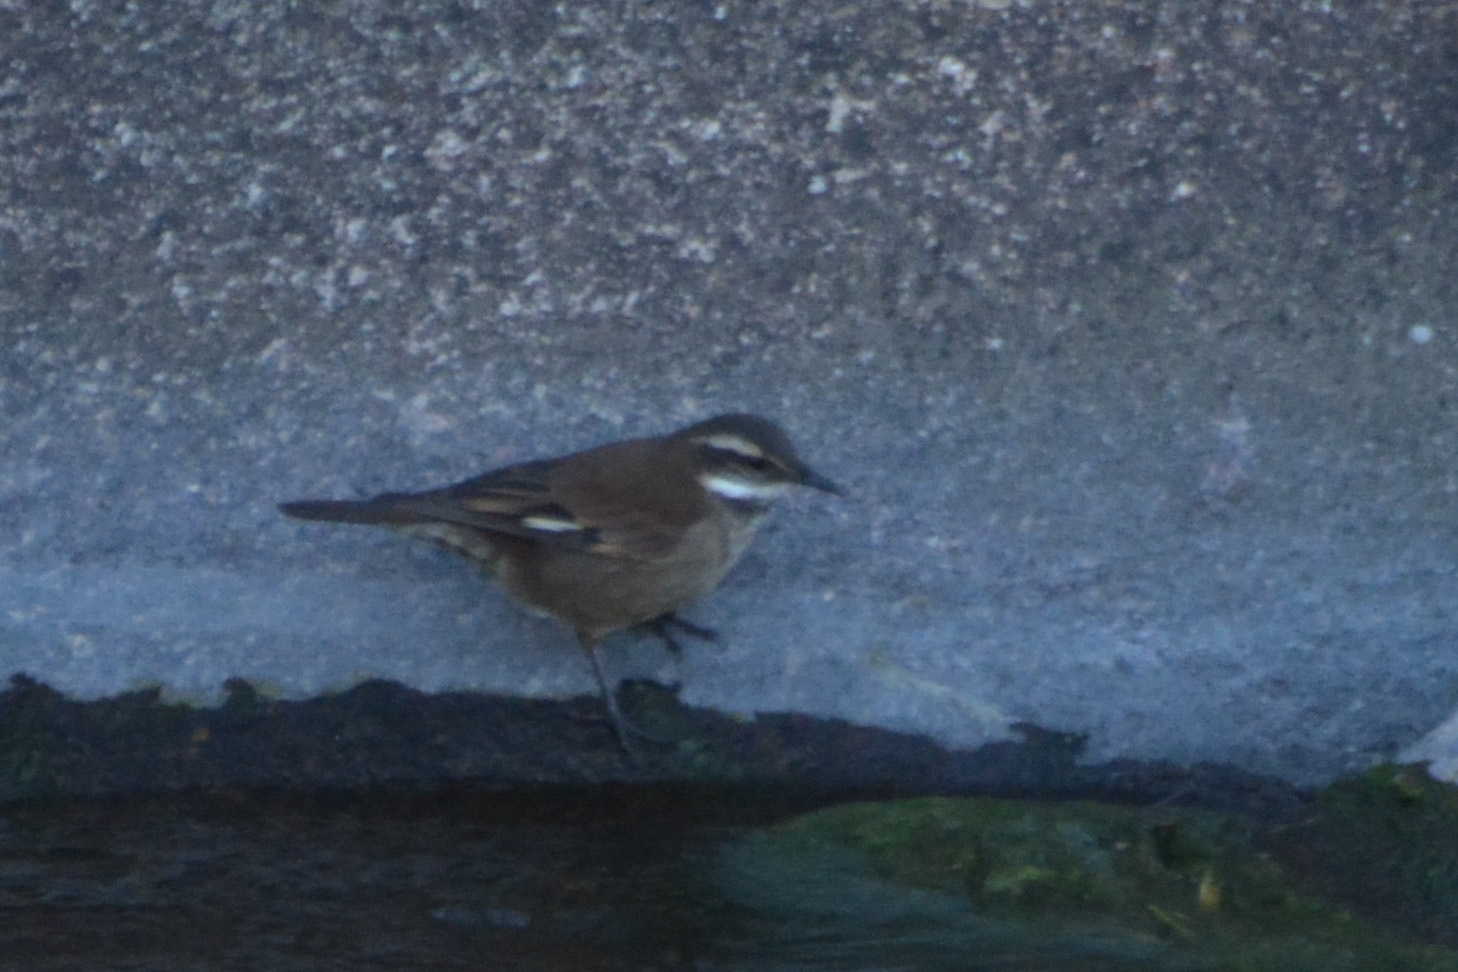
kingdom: Animalia
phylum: Chordata
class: Aves
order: Passeriformes
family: Furnariidae
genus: Cinclodes
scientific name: Cinclodes olrogi
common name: Olrog's cinclodes
